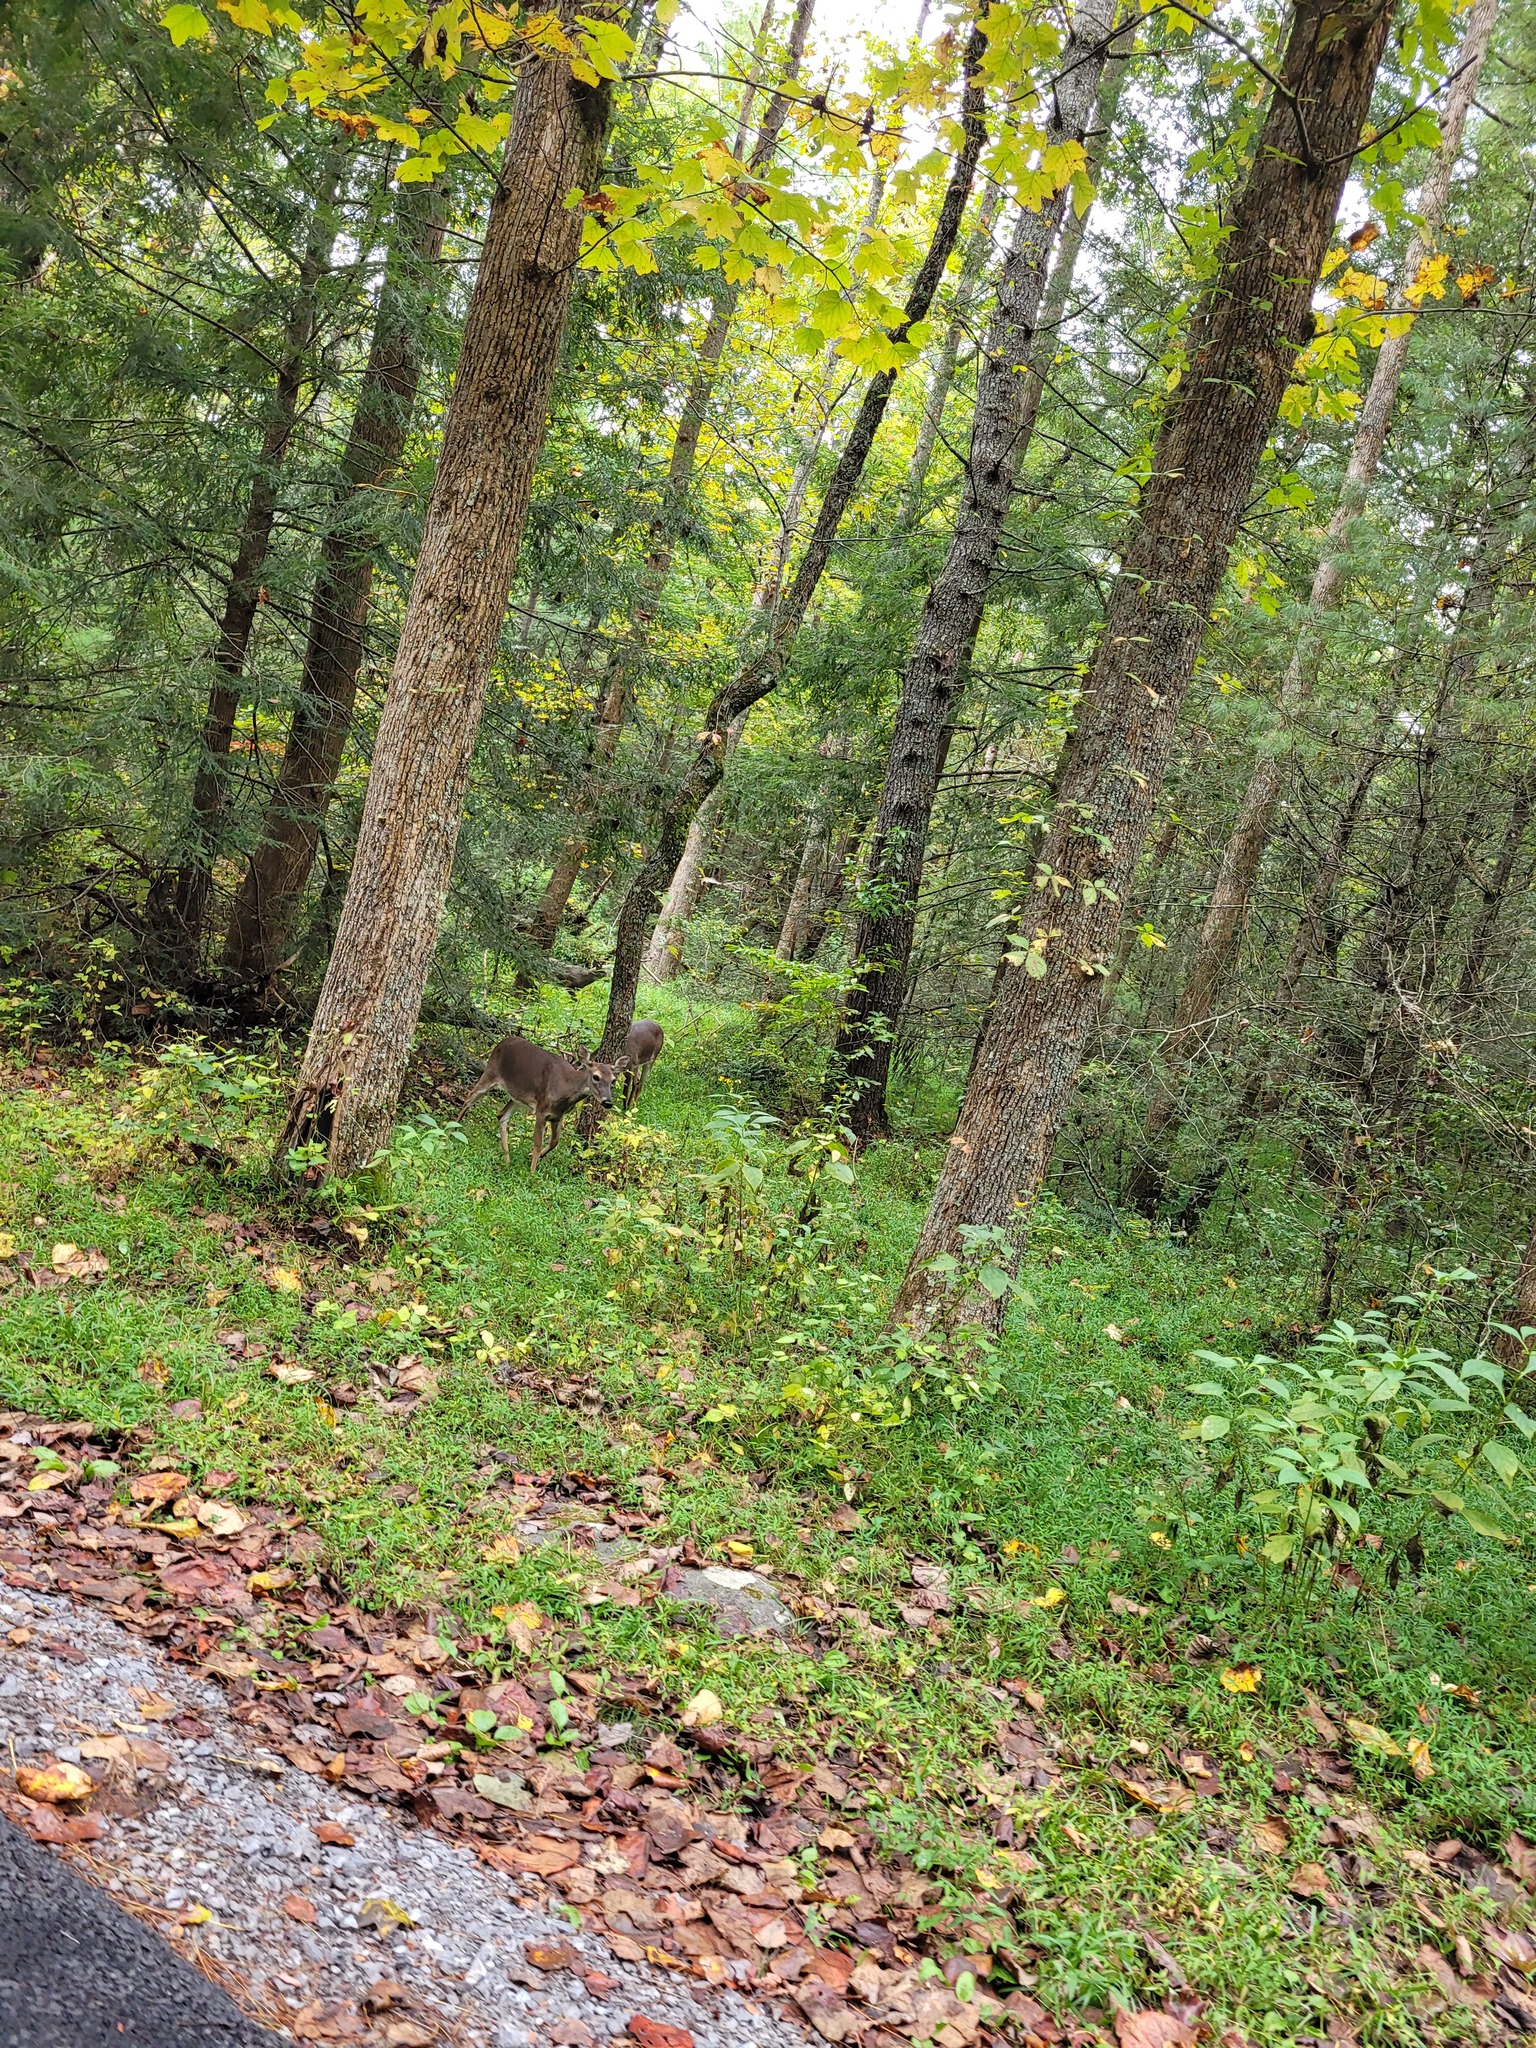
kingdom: Animalia
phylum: Chordata
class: Mammalia
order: Artiodactyla
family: Cervidae
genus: Odocoileus
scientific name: Odocoileus virginianus
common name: White-tailed deer
